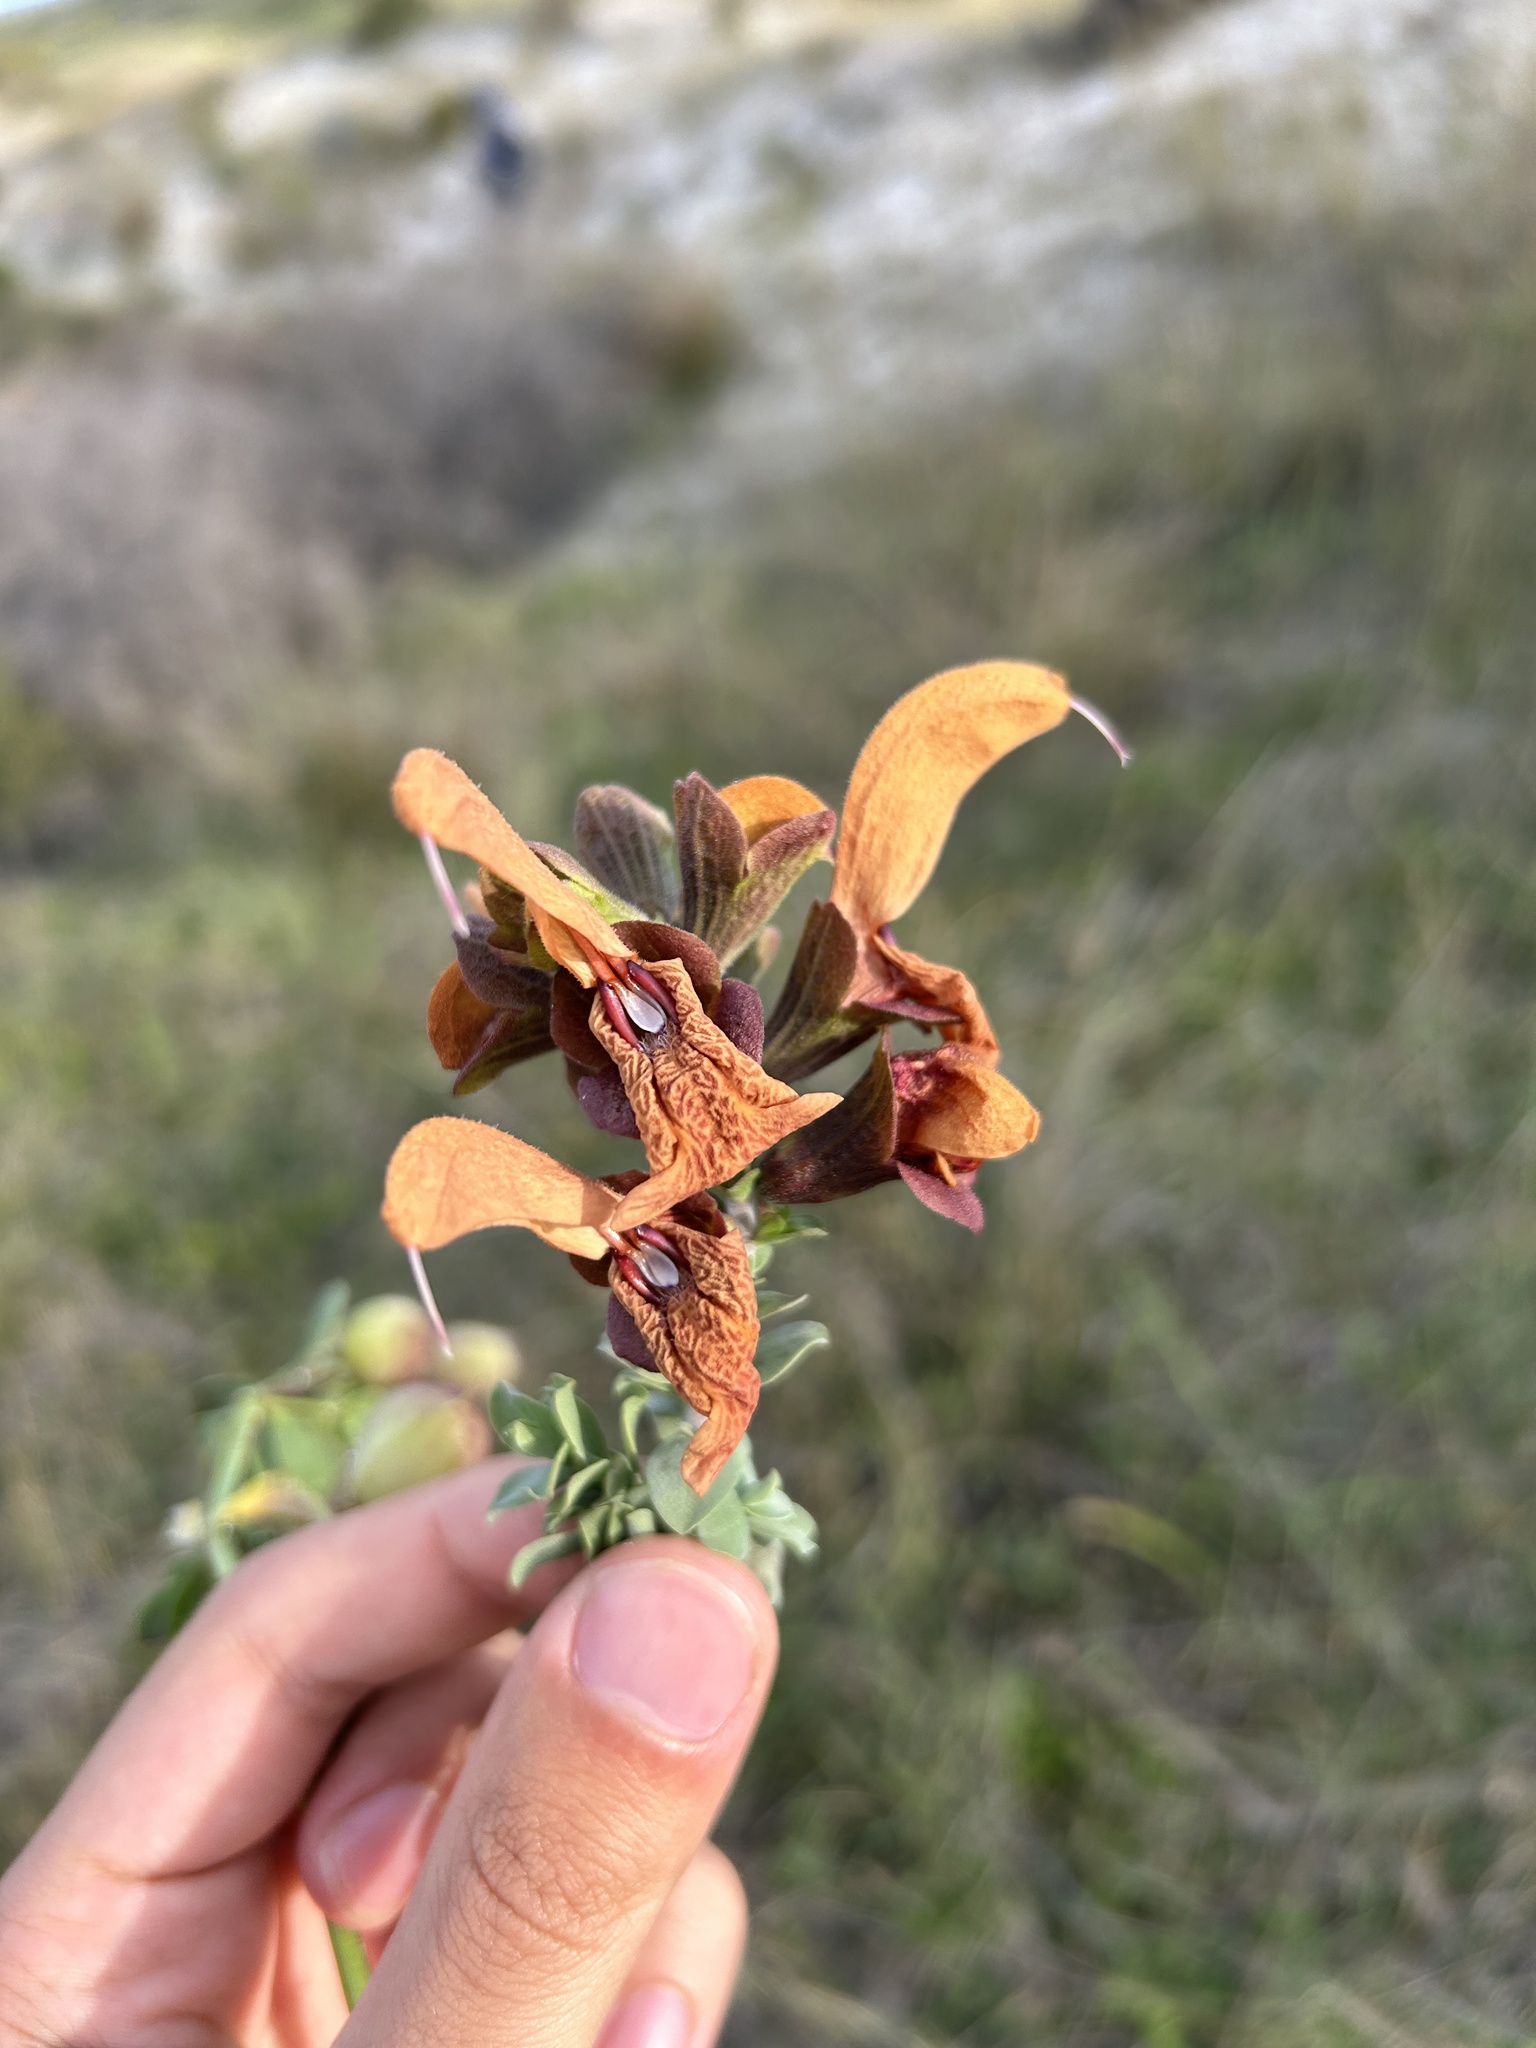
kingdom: Plantae
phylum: Tracheophyta
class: Magnoliopsida
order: Lamiales
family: Lamiaceae
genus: Salvia
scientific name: Salvia aurea
